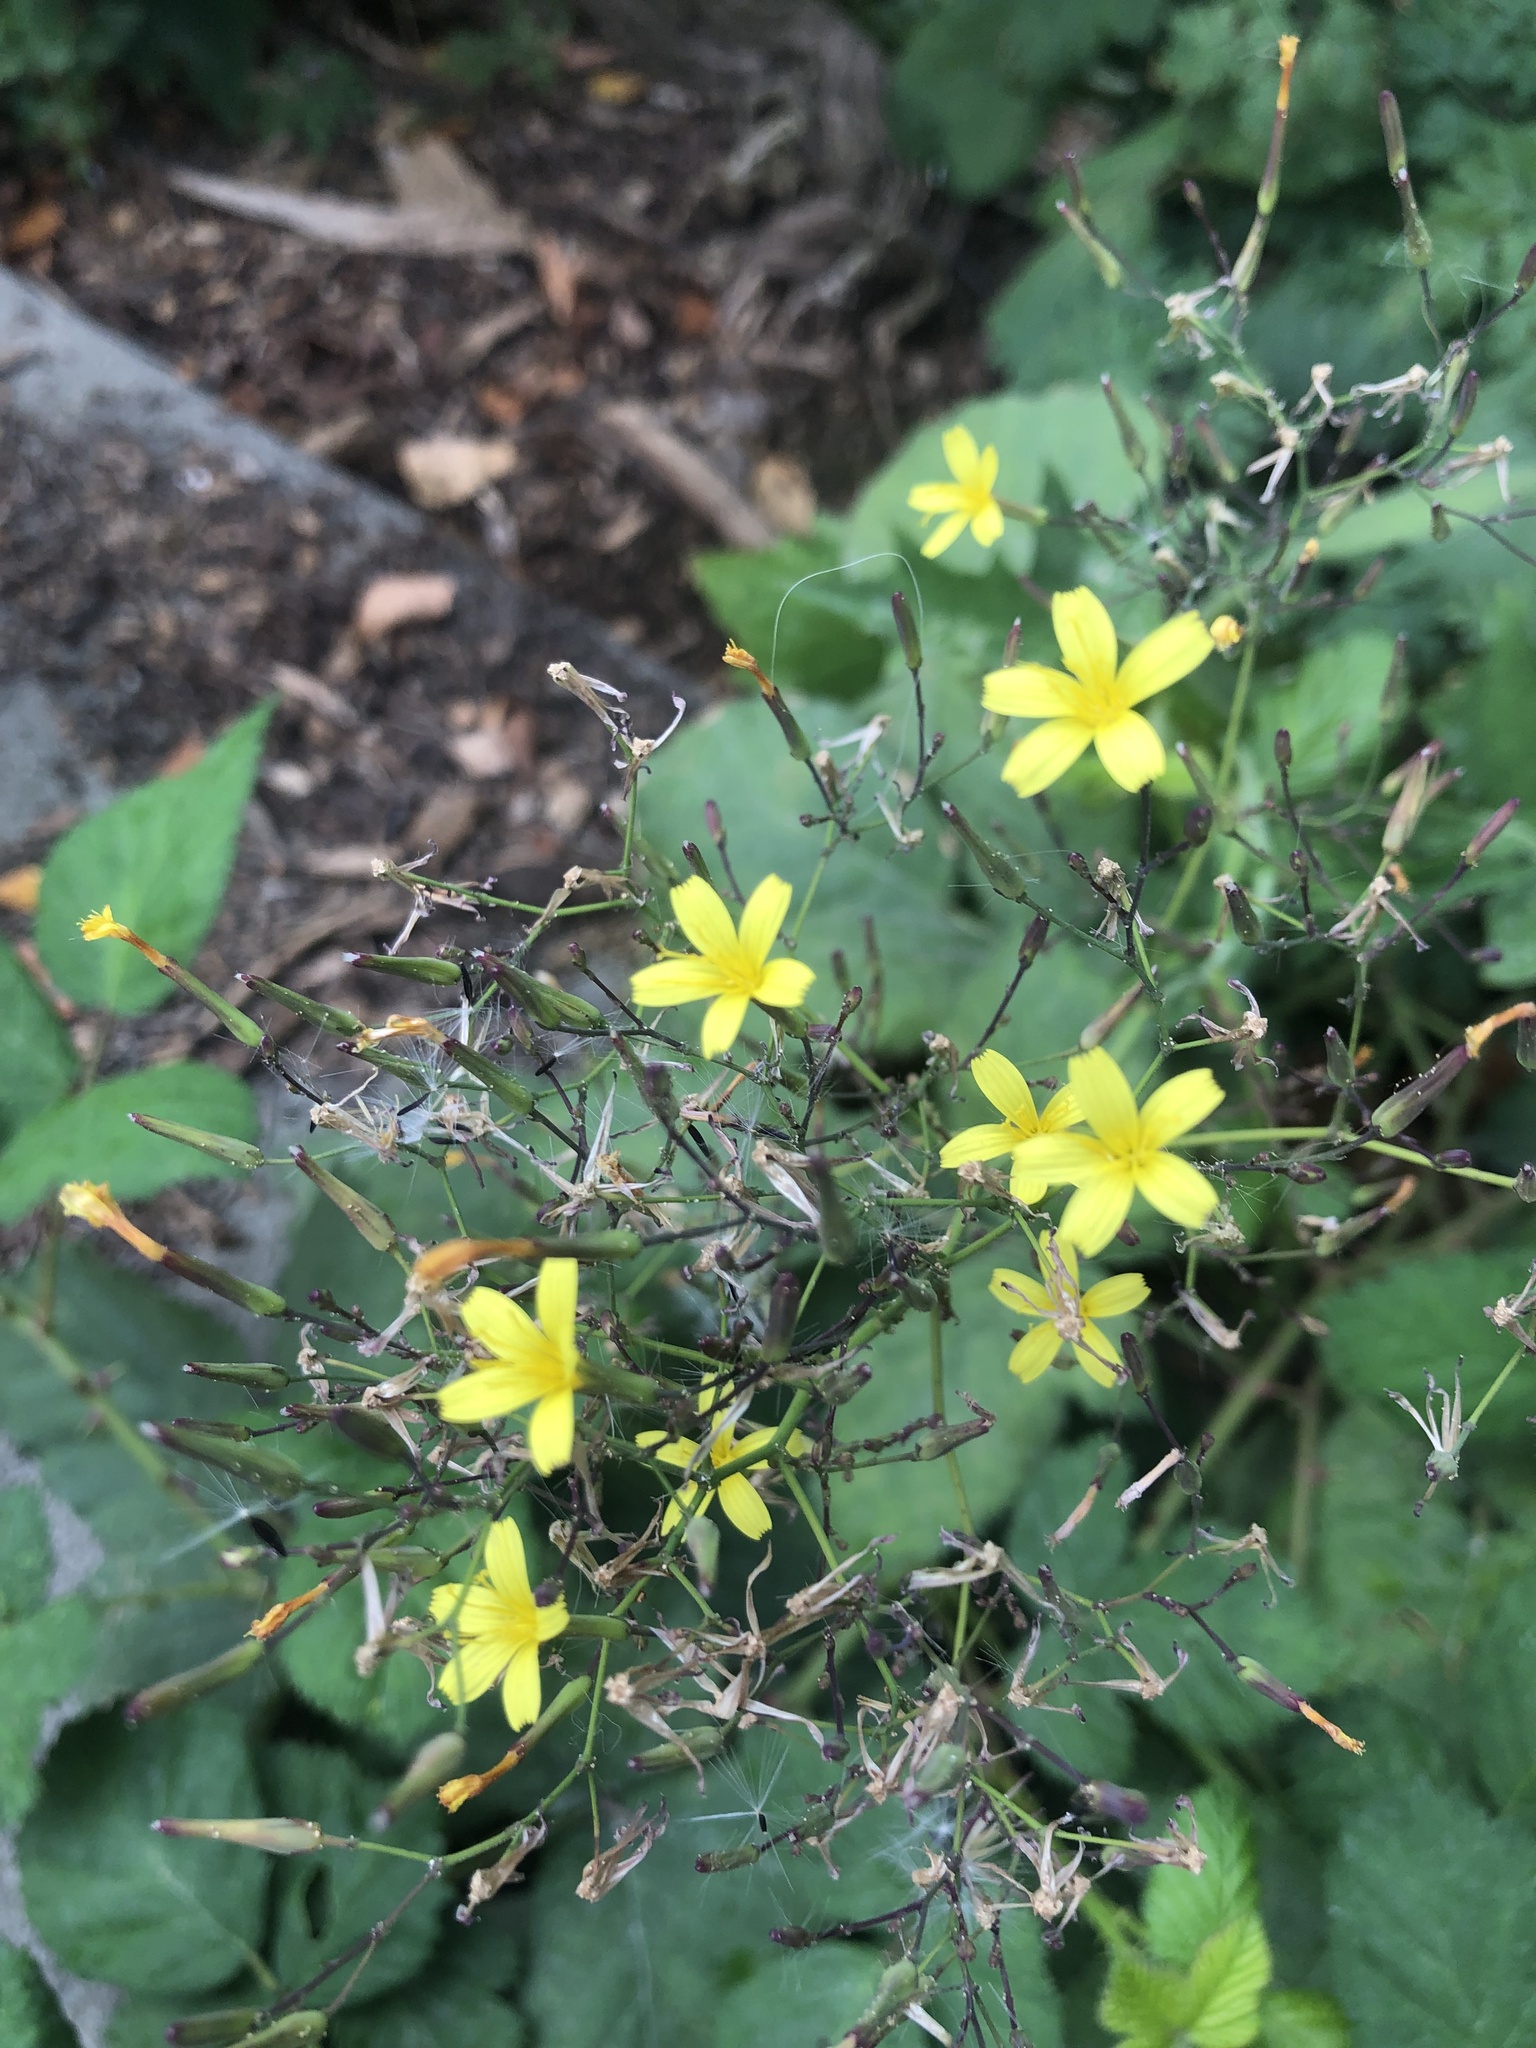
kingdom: Plantae
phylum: Tracheophyta
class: Magnoliopsida
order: Asterales
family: Asteraceae
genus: Mycelis
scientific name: Mycelis muralis
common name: Wall lettuce
